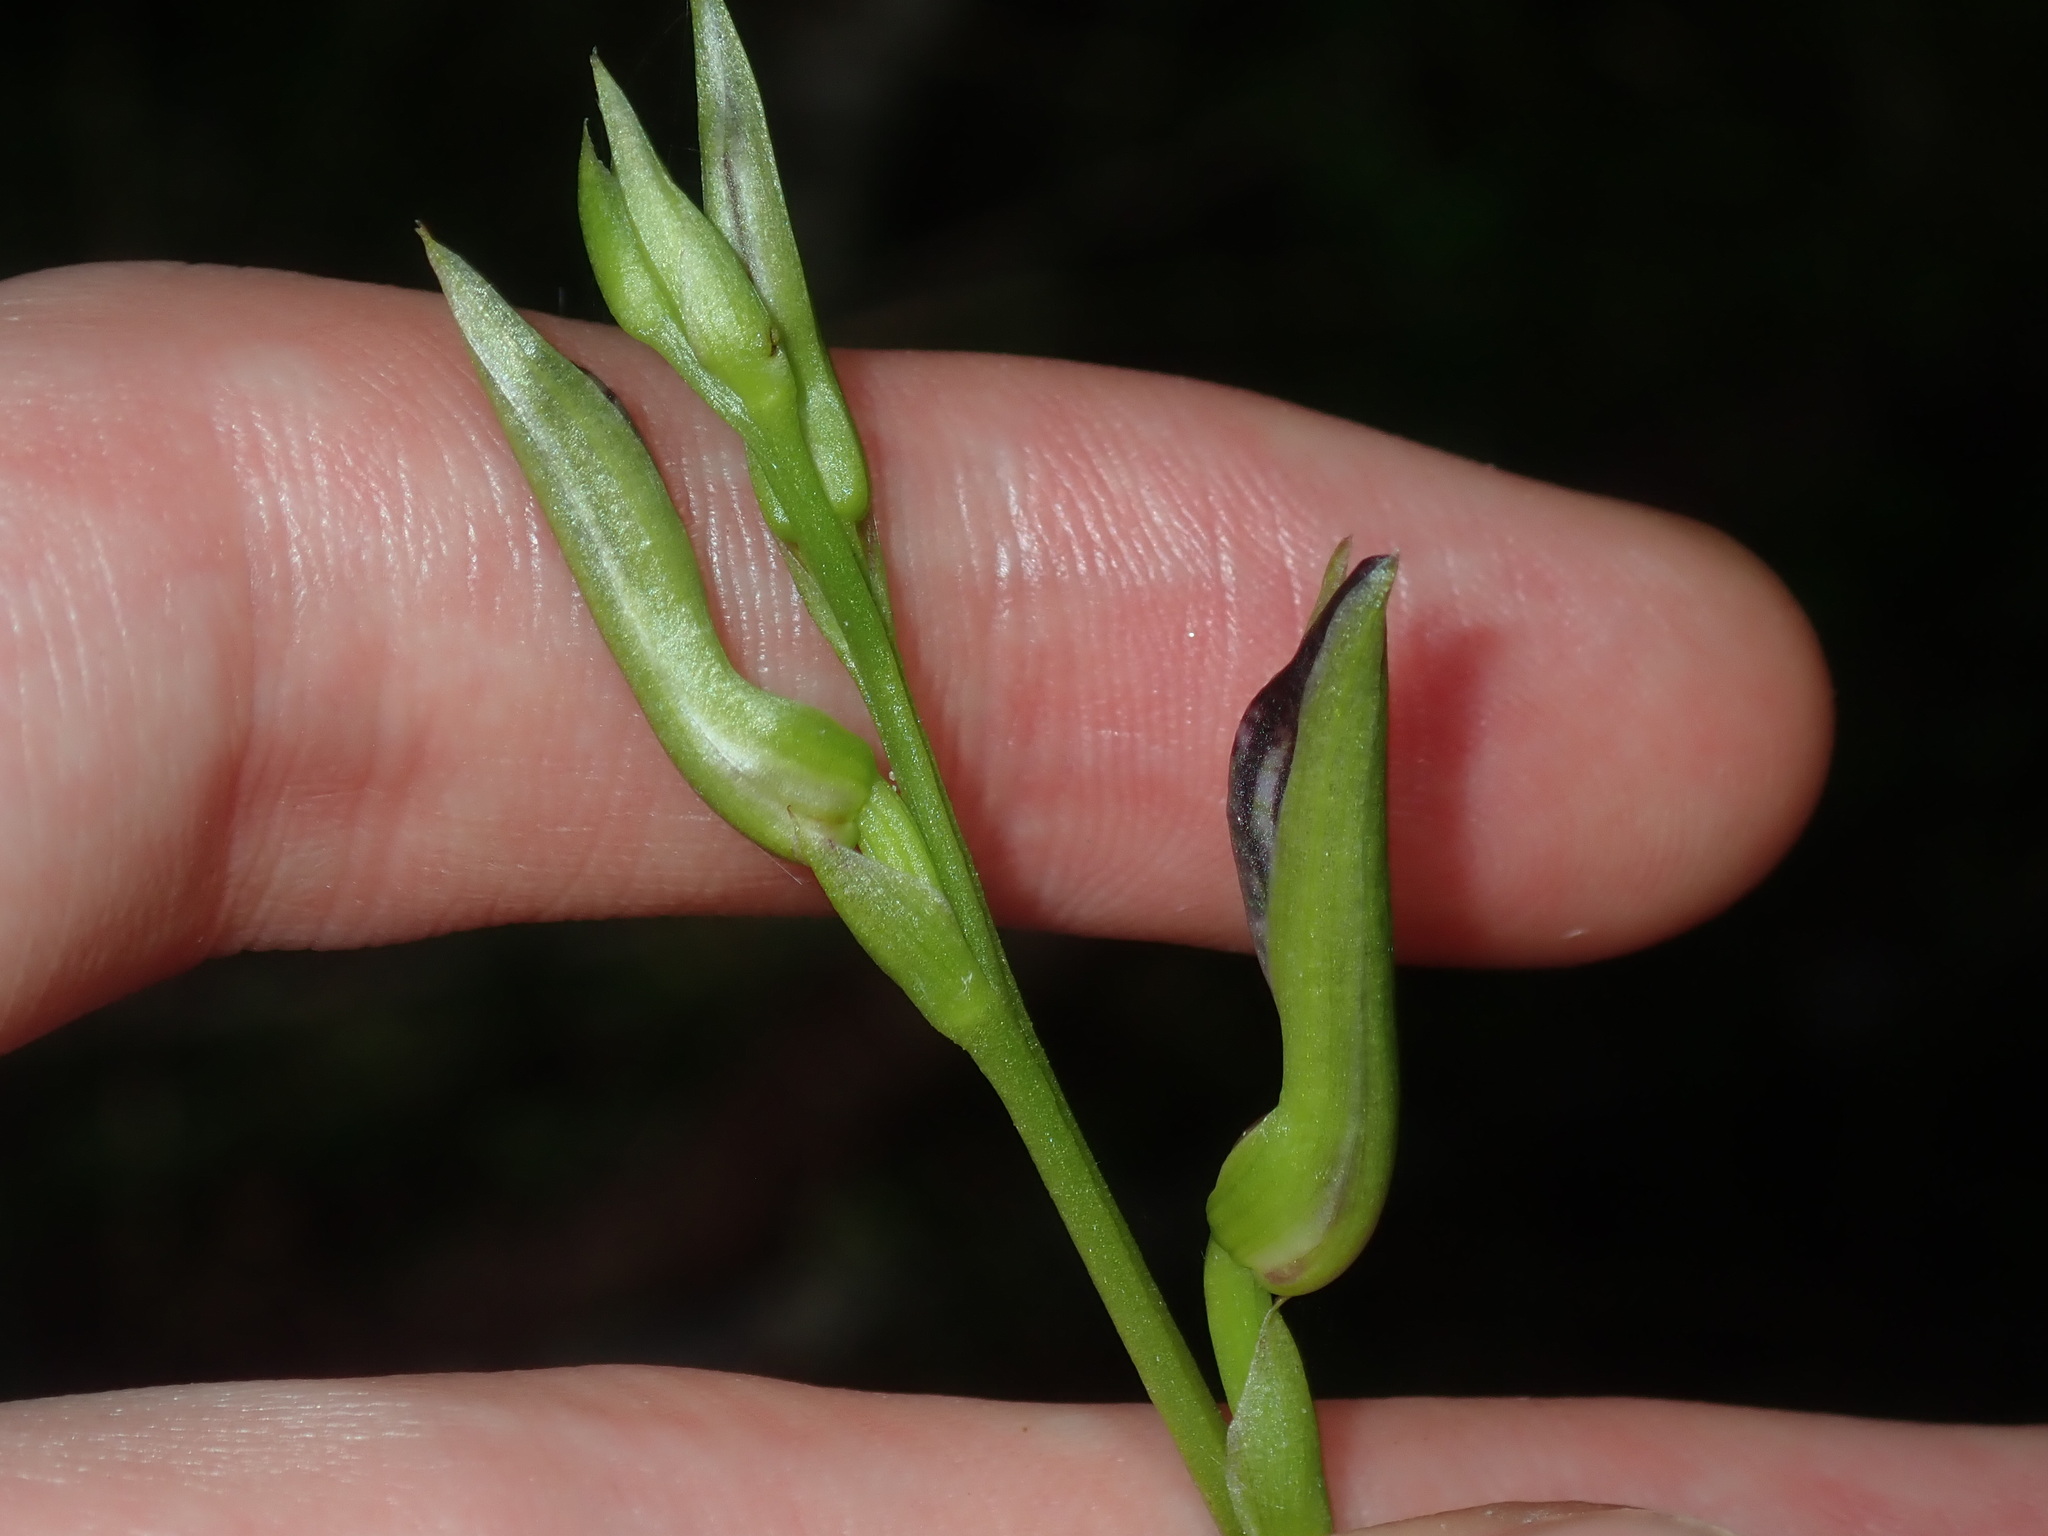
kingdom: Plantae
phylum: Tracheophyta
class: Liliopsida
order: Asparagales
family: Orchidaceae
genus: Cryptostylis
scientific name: Cryptostylis erecta
